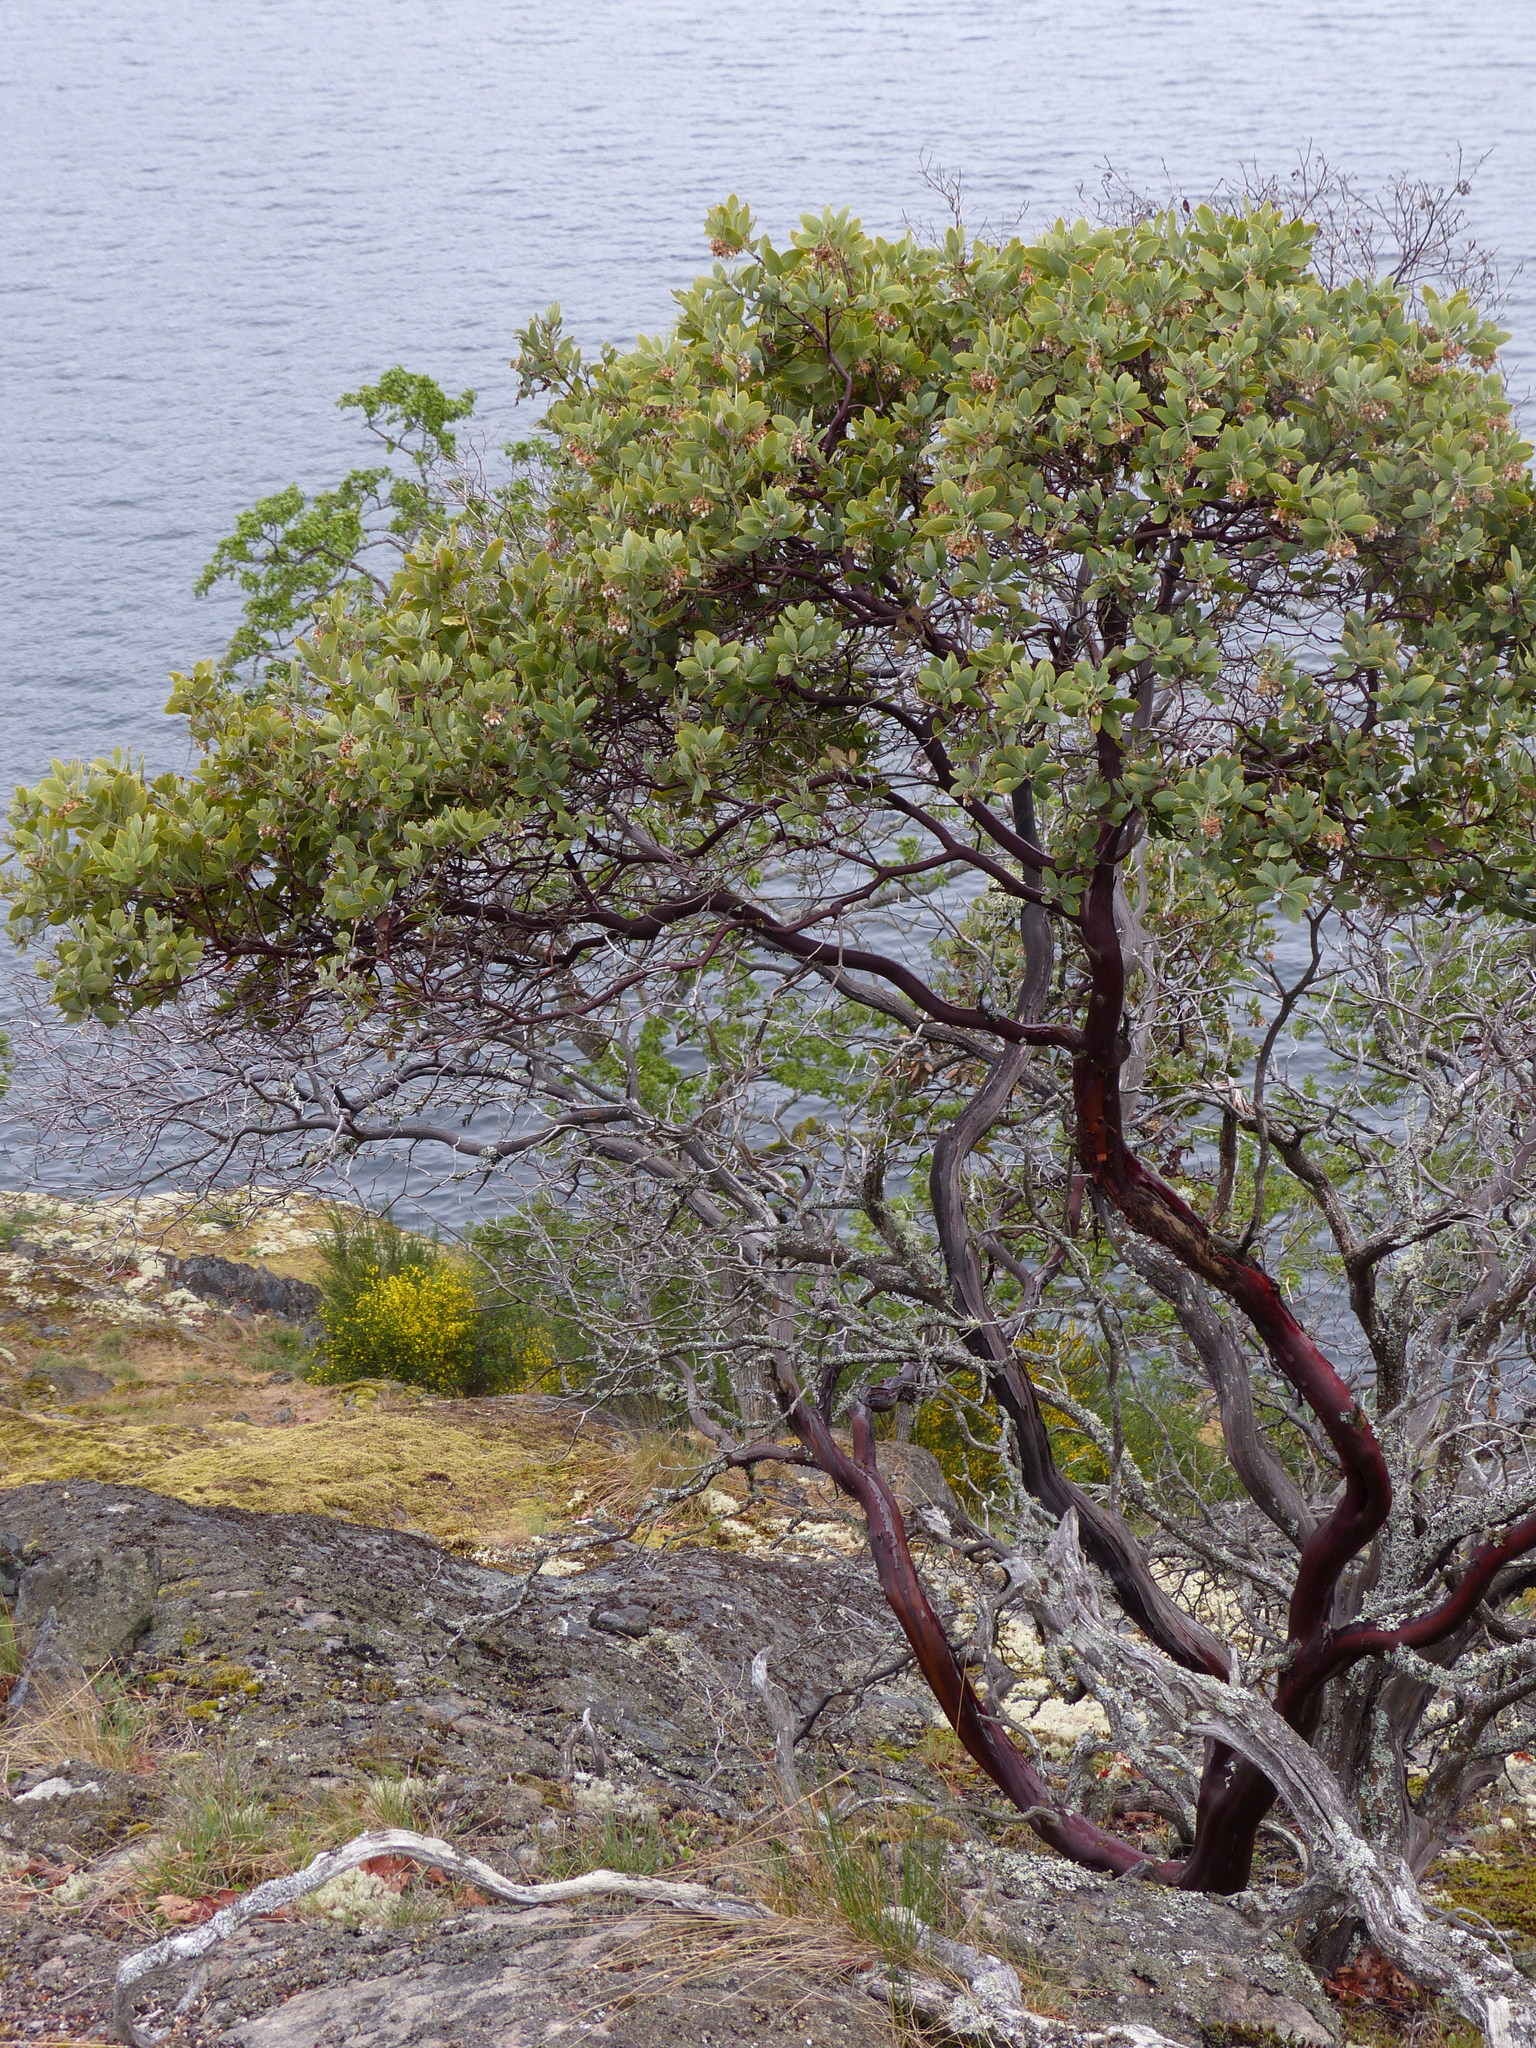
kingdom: Plantae
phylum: Tracheophyta
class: Magnoliopsida
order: Ericales
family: Ericaceae
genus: Arctostaphylos
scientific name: Arctostaphylos columbiana
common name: Bristly bearberry
